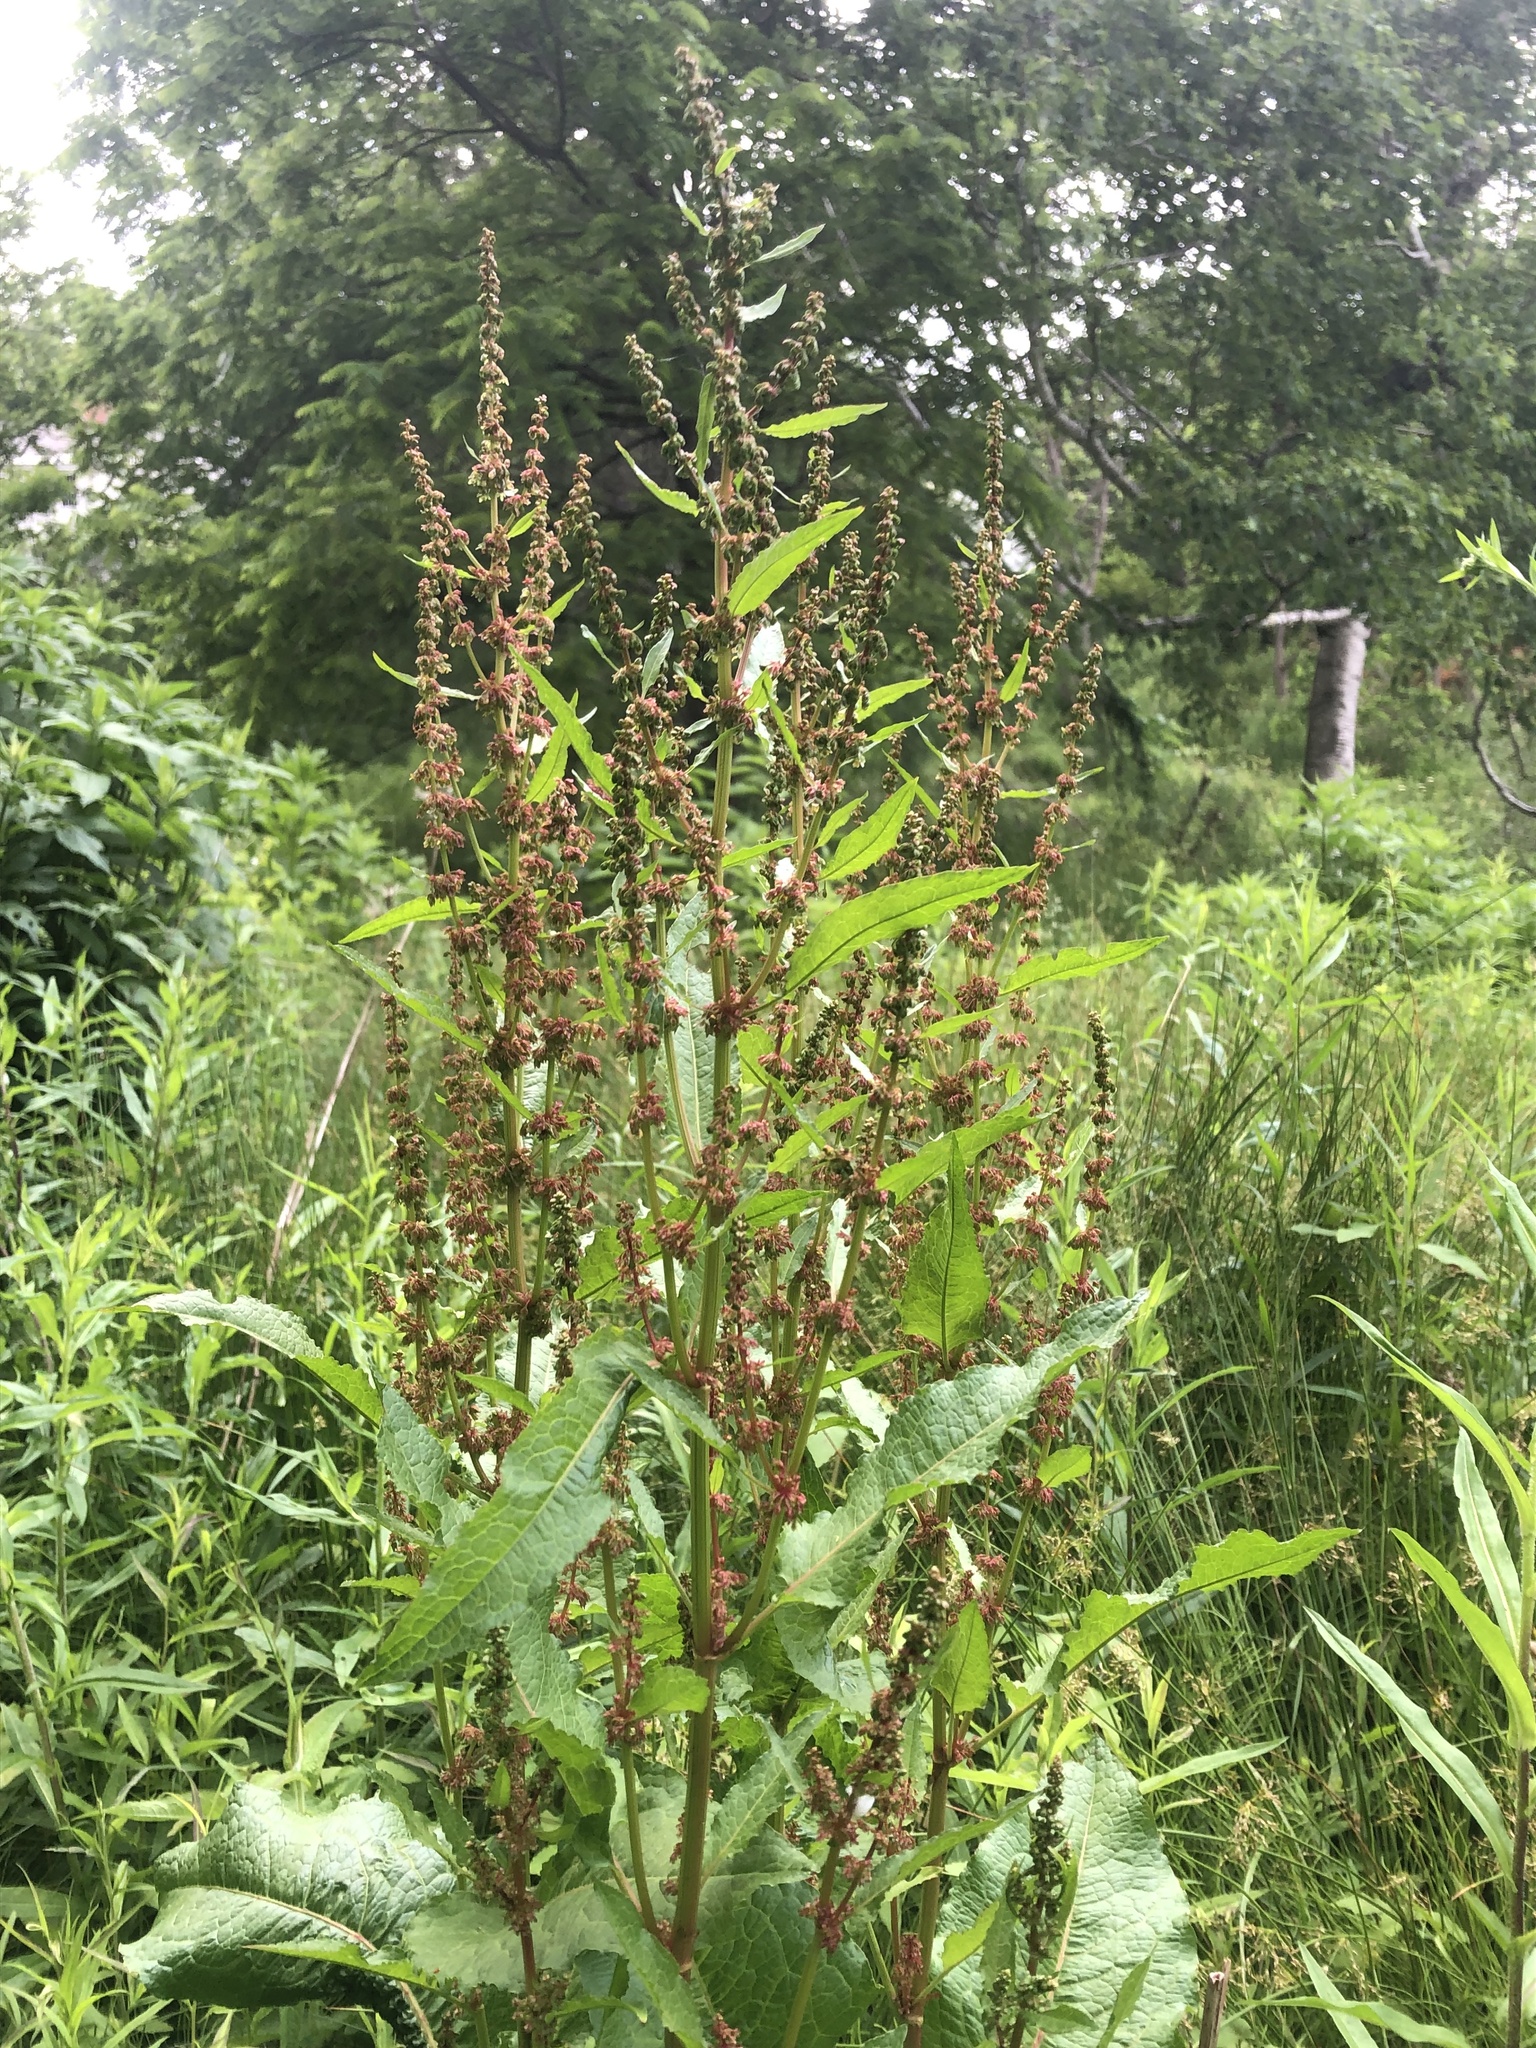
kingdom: Plantae
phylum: Tracheophyta
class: Magnoliopsida
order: Caryophyllales
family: Polygonaceae
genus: Rumex
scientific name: Rumex obtusifolius
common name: Bitter dock
